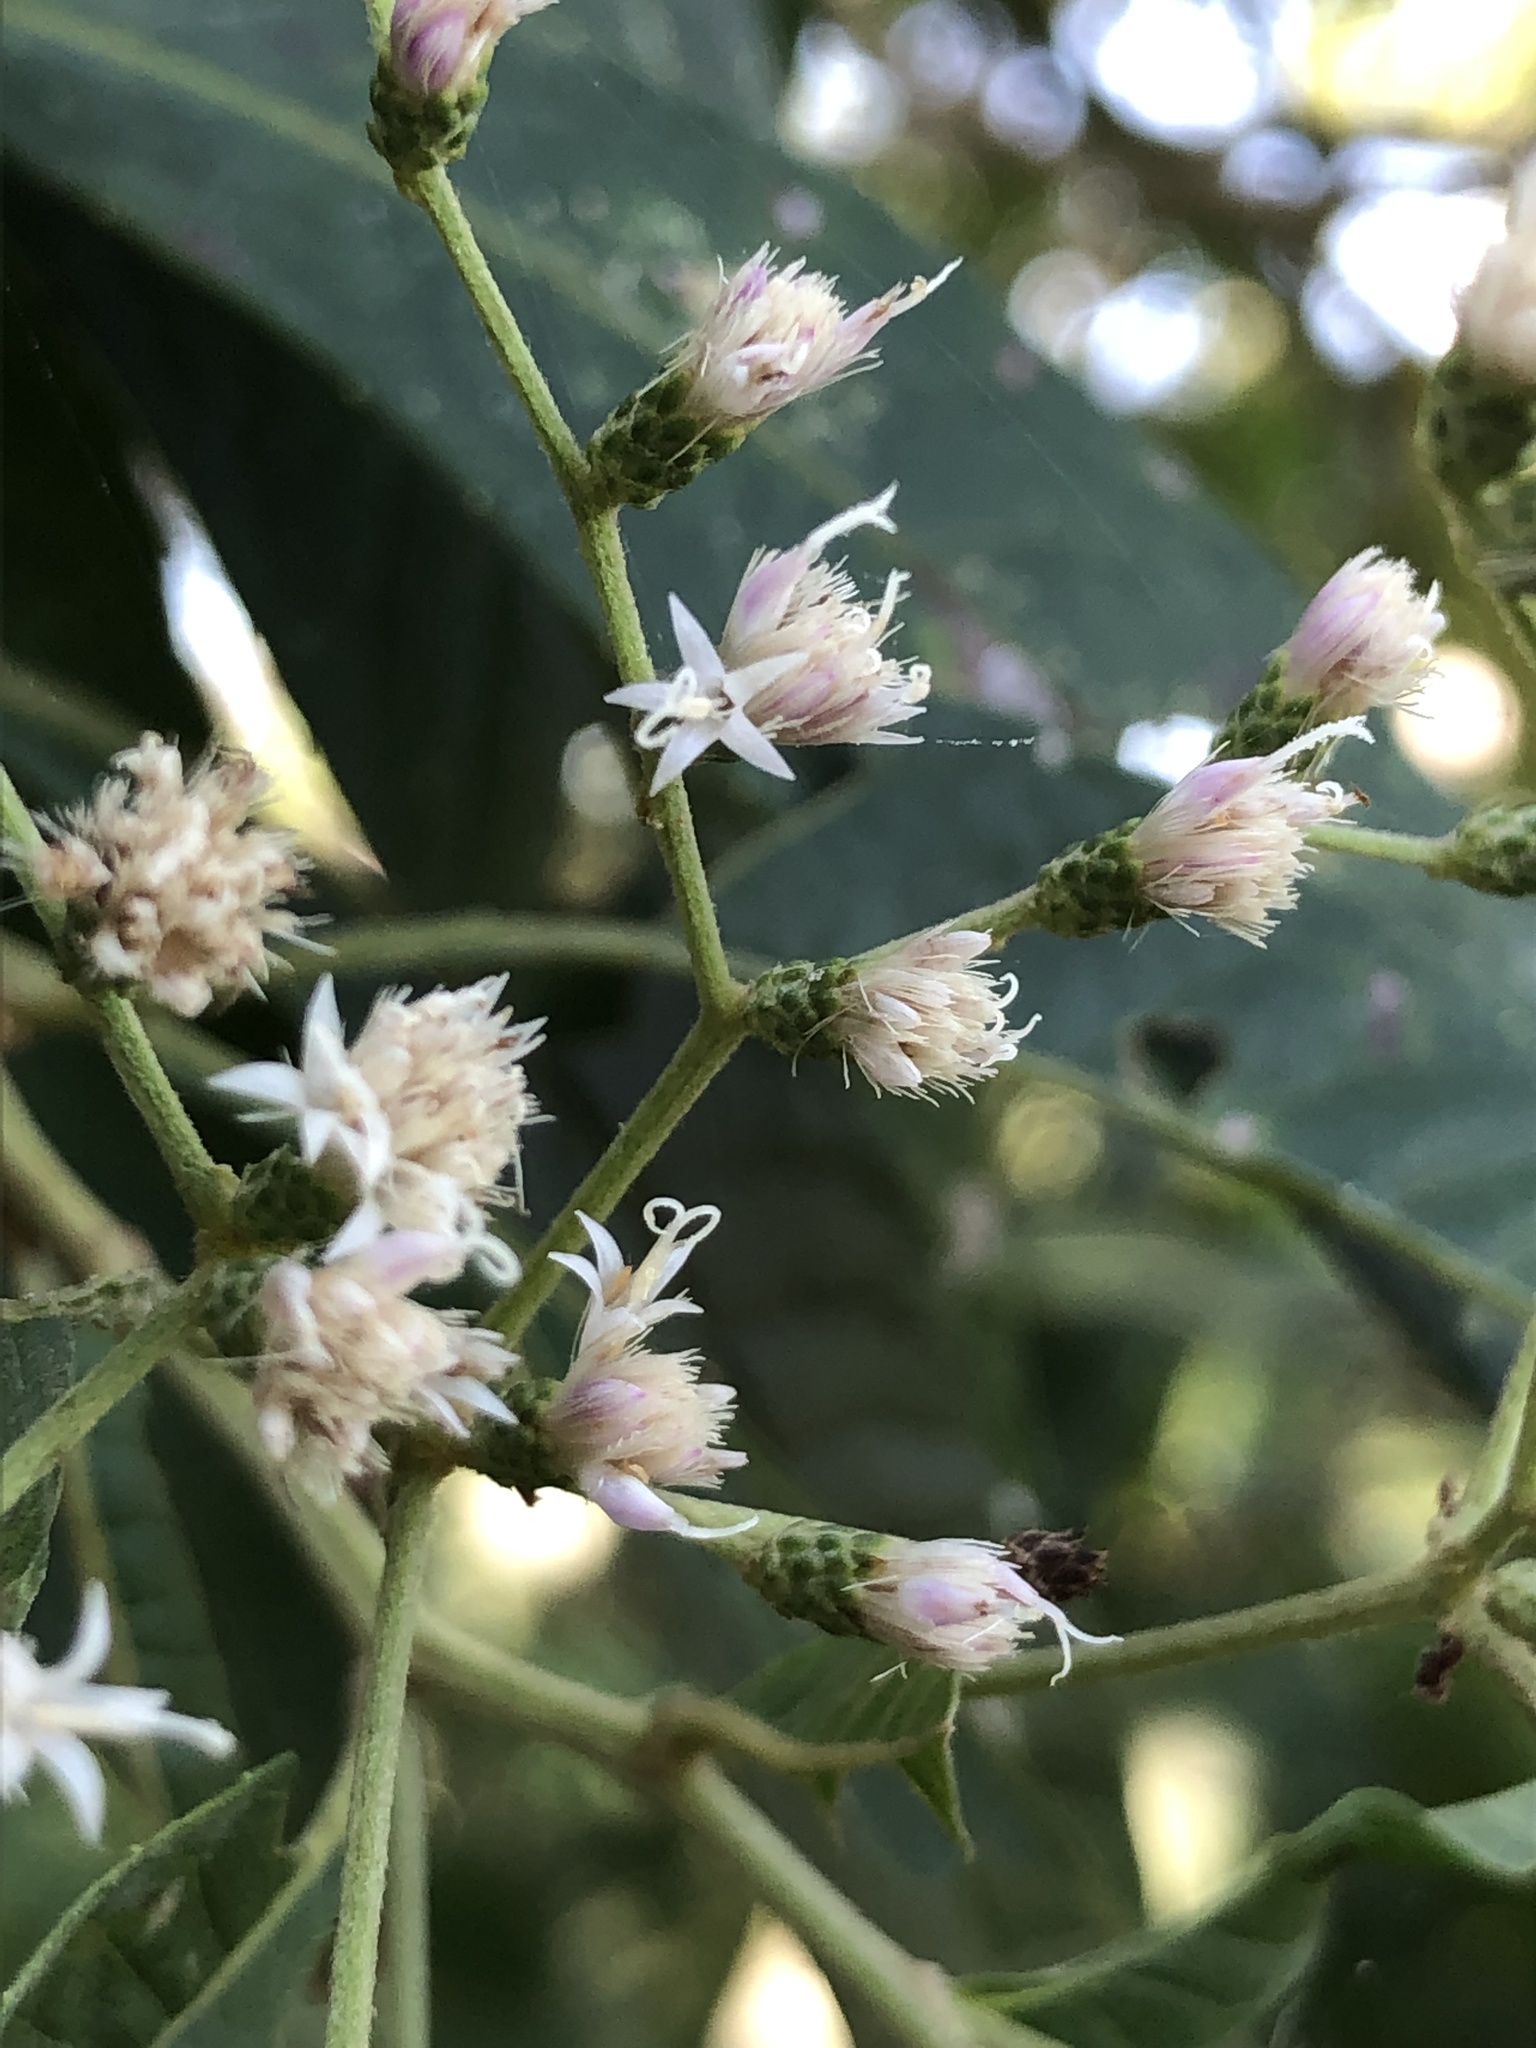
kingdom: Plantae
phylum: Tracheophyta
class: Magnoliopsida
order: Asterales
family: Asteraceae
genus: Vernonanthura
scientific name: Vernonanthura patens
